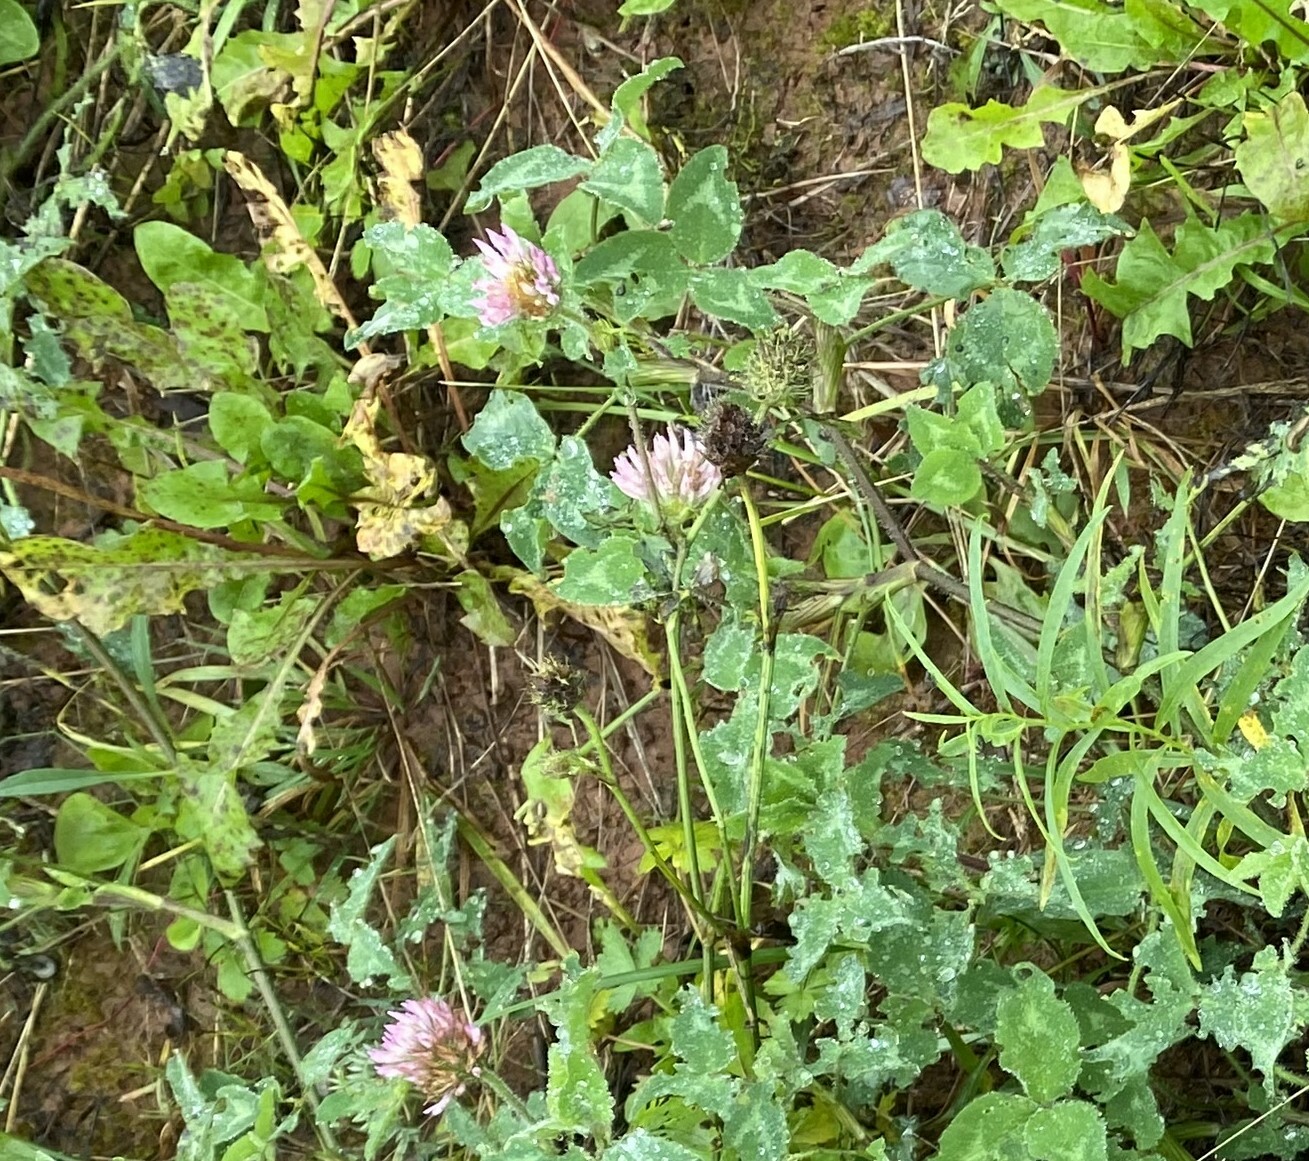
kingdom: Plantae
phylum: Tracheophyta
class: Magnoliopsida
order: Fabales
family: Fabaceae
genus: Trifolium
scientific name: Trifolium pratense
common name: Red clover
